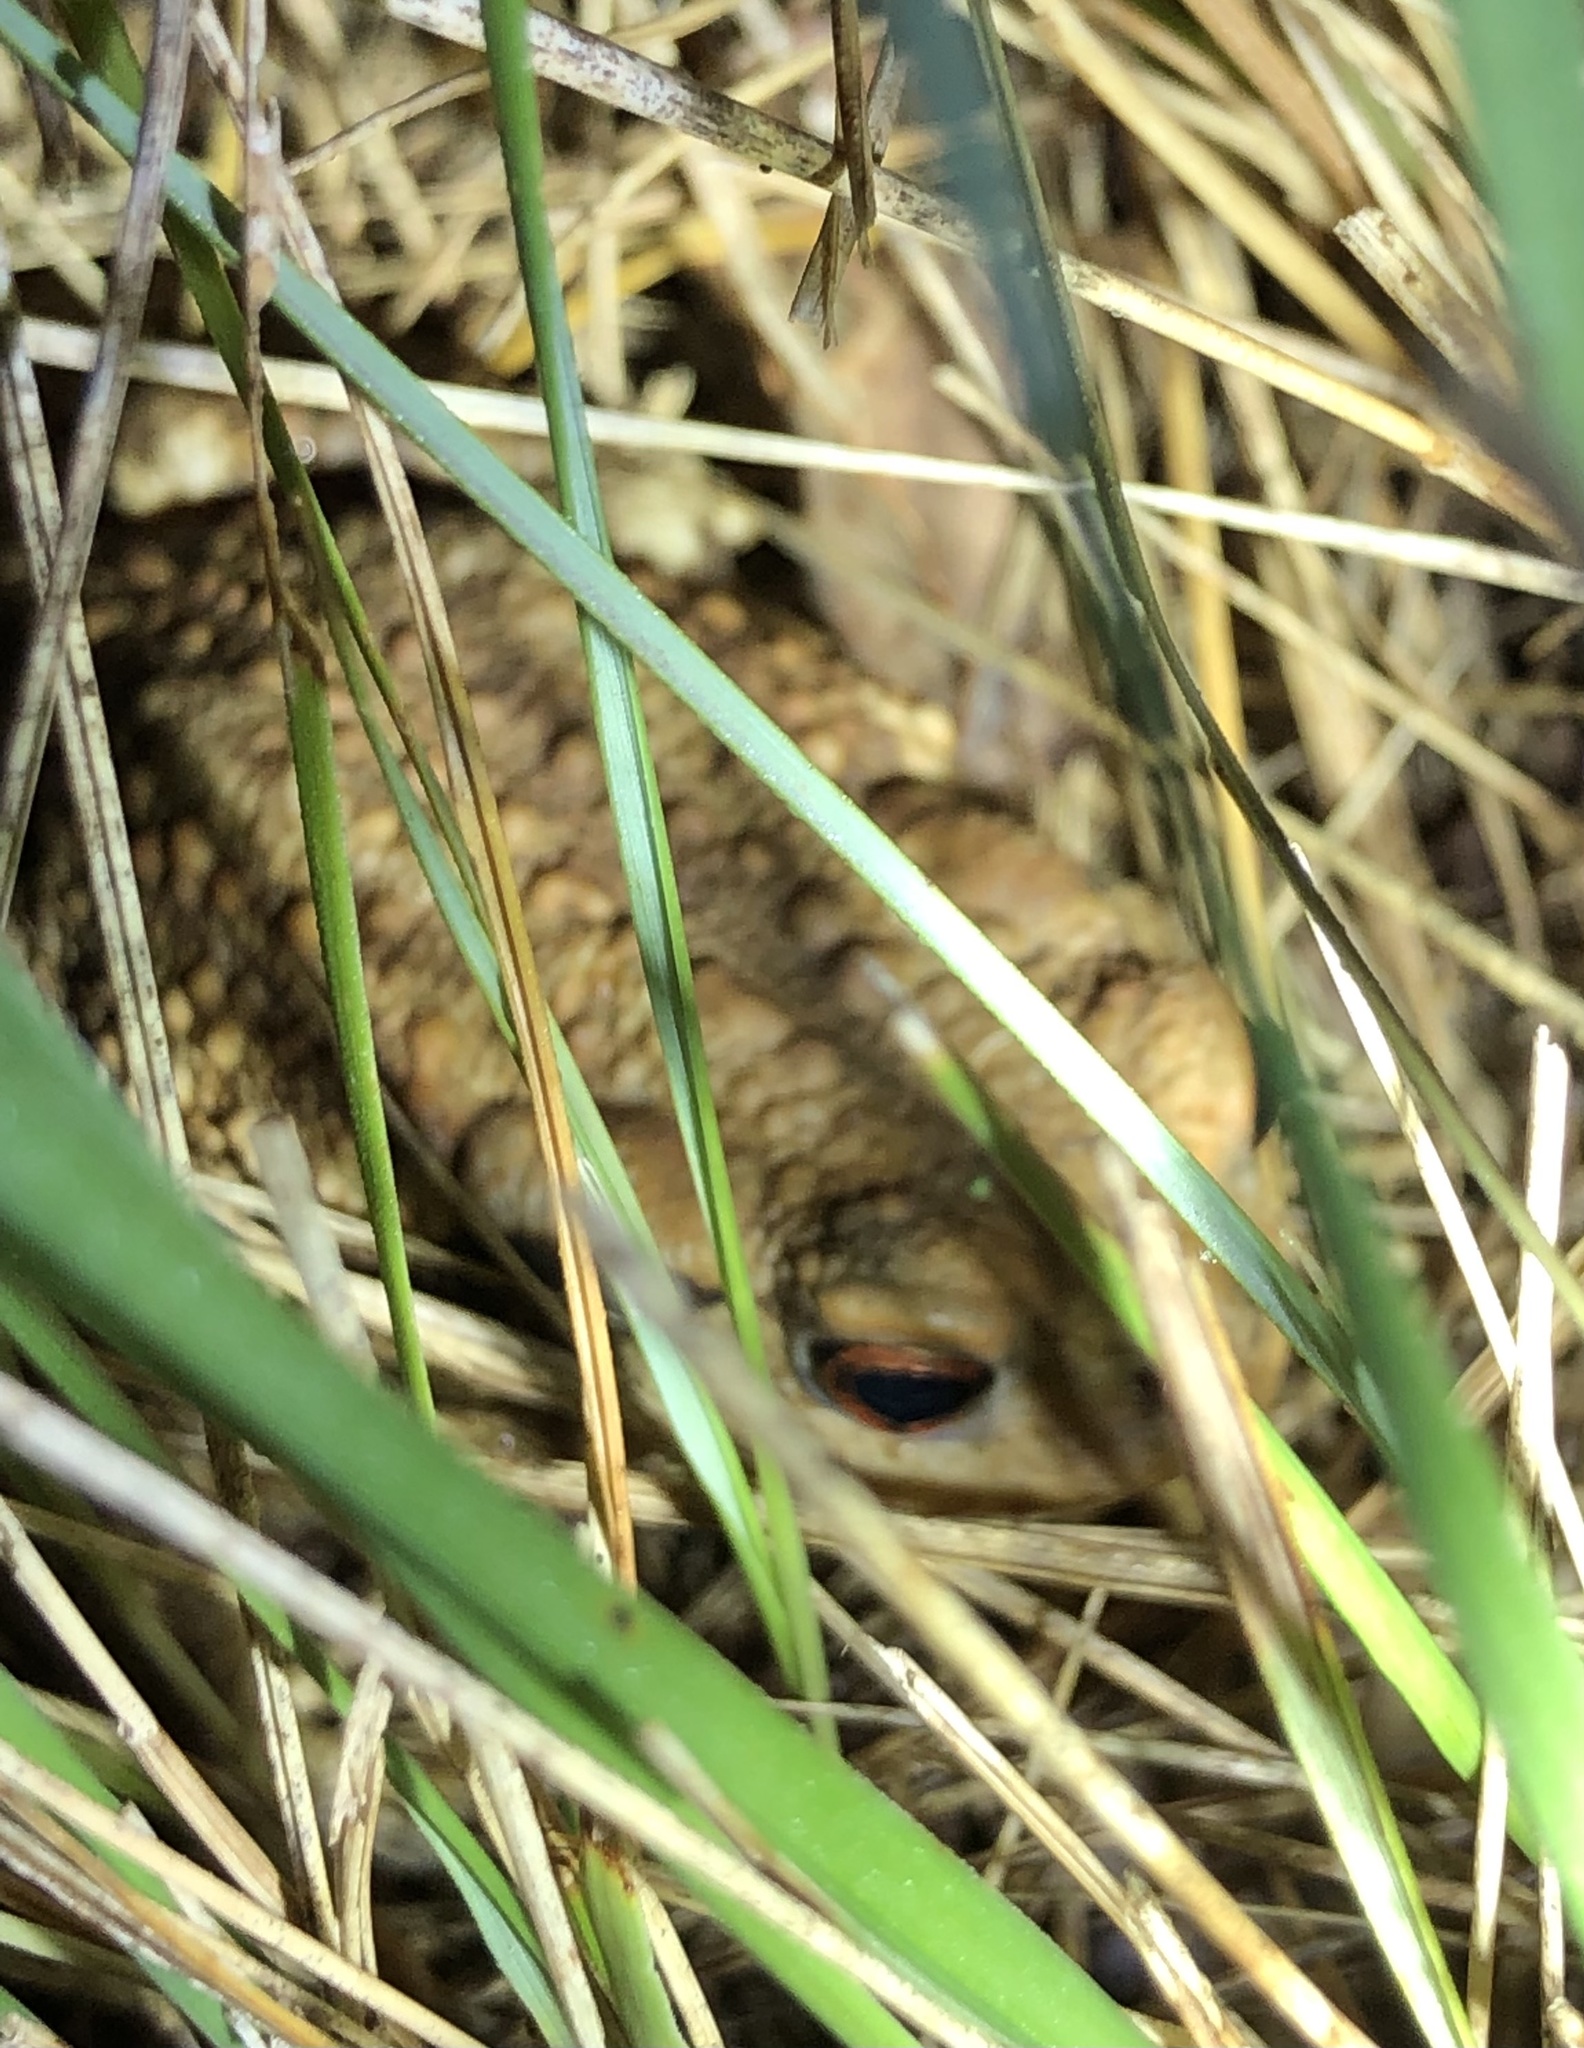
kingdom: Animalia
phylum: Chordata
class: Amphibia
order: Anura
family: Bufonidae
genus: Bufo
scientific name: Bufo spinosus
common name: Western common toad
